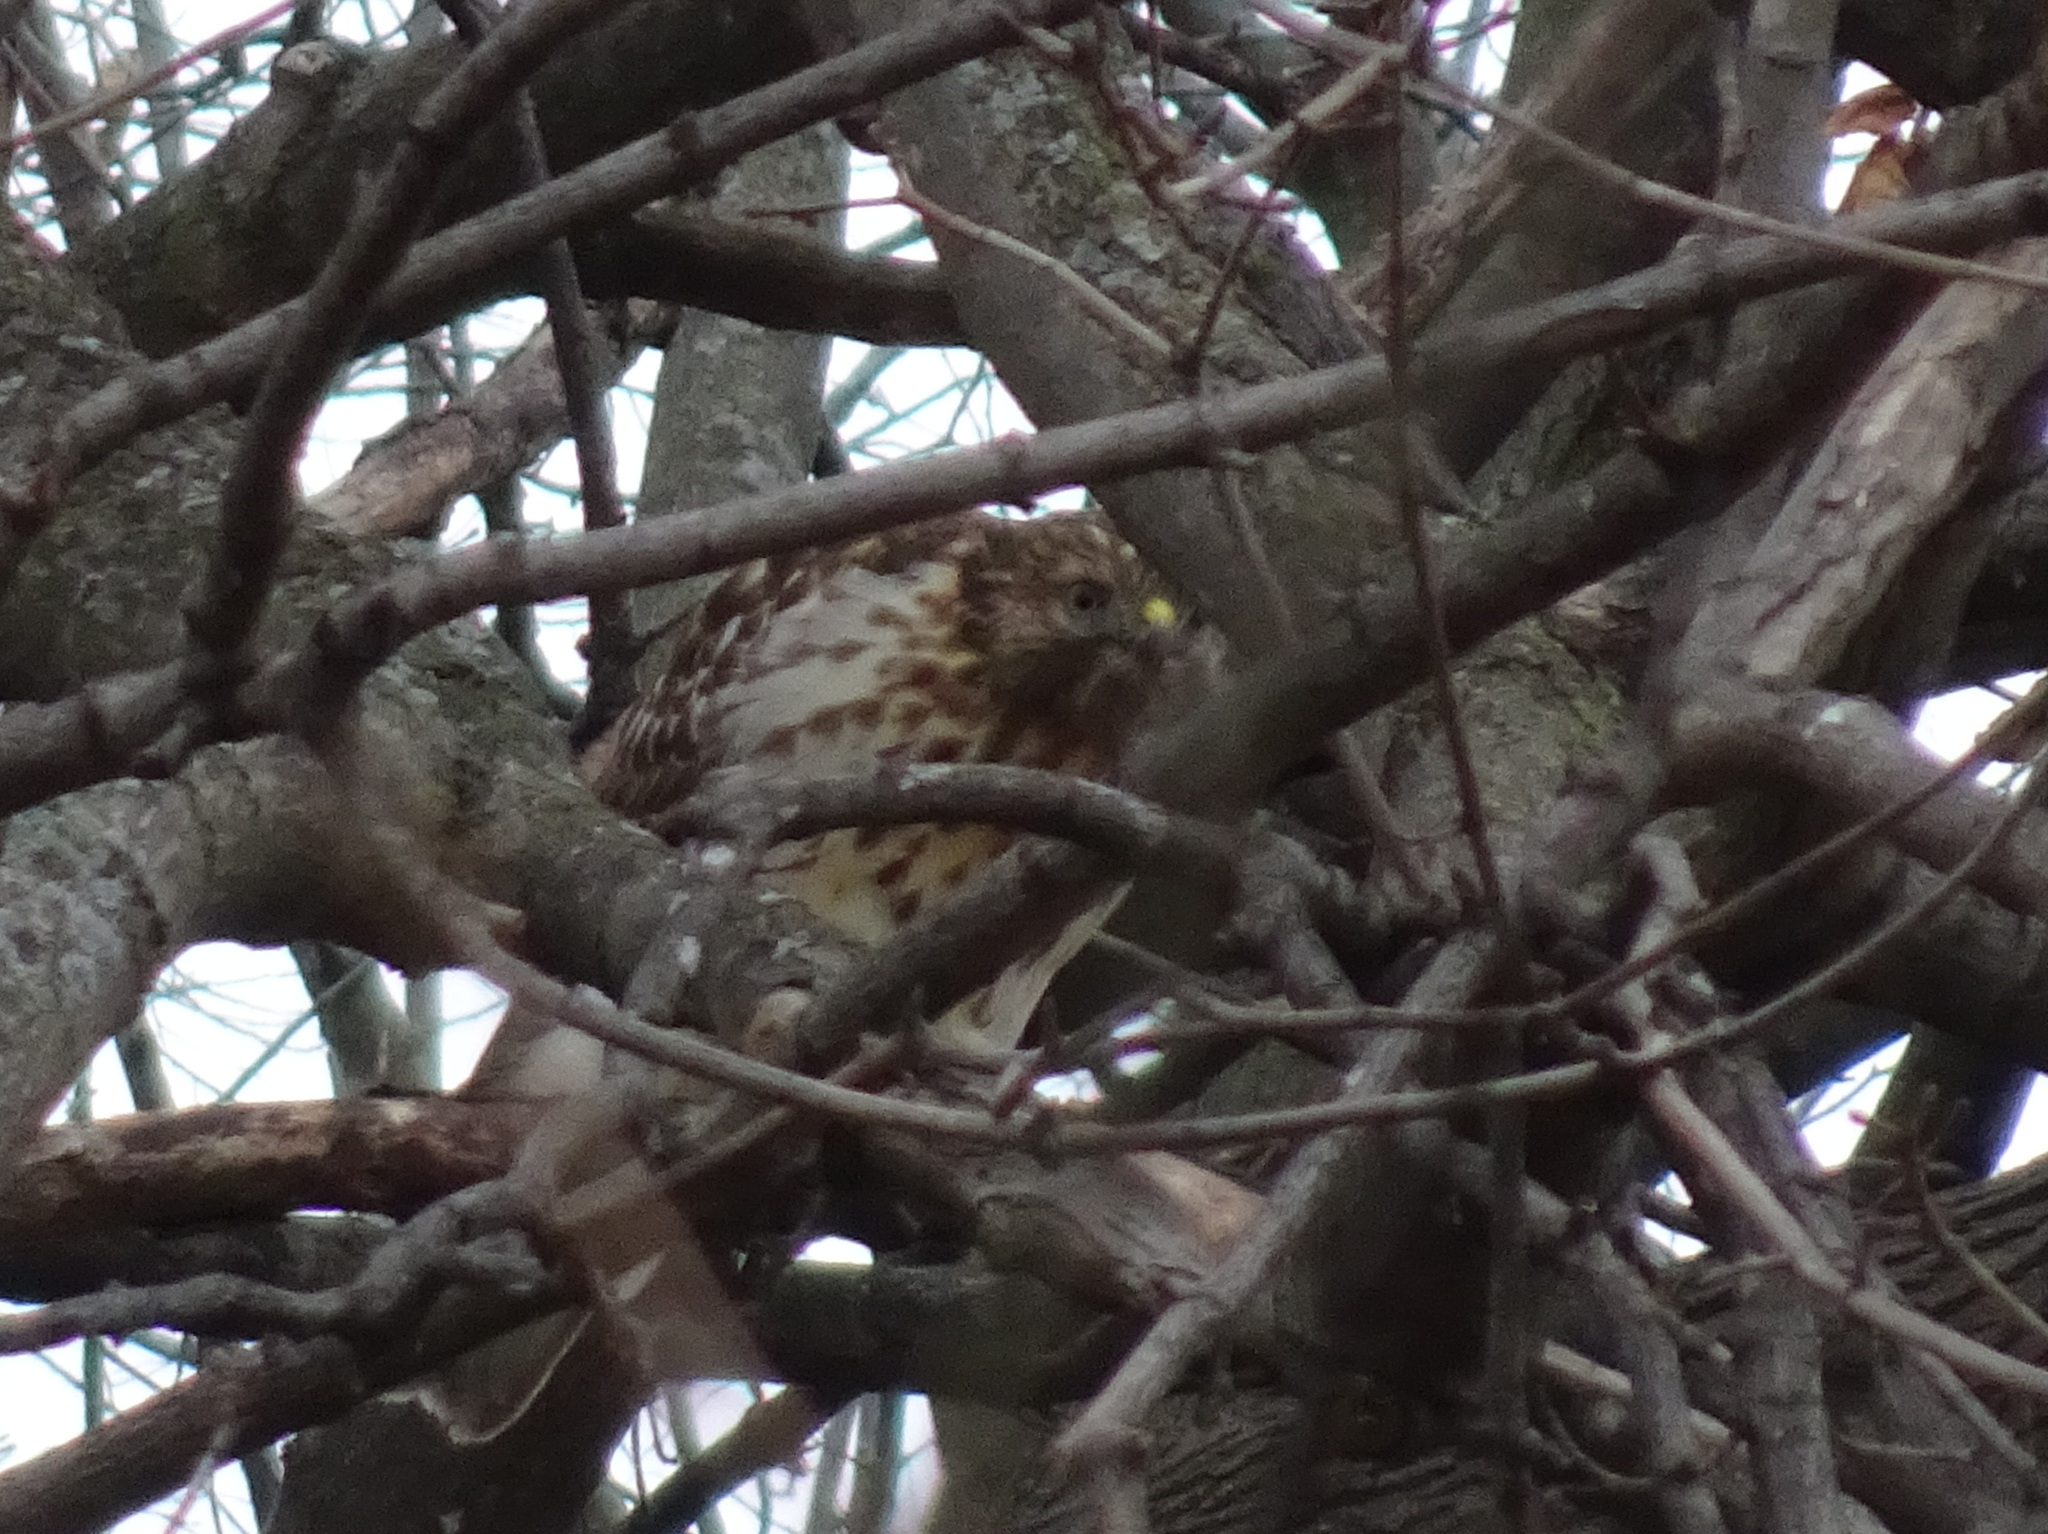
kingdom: Animalia
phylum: Chordata
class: Aves
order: Accipitriformes
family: Accipitridae
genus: Buteo
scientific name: Buteo lineatus
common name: Red-shouldered hawk
